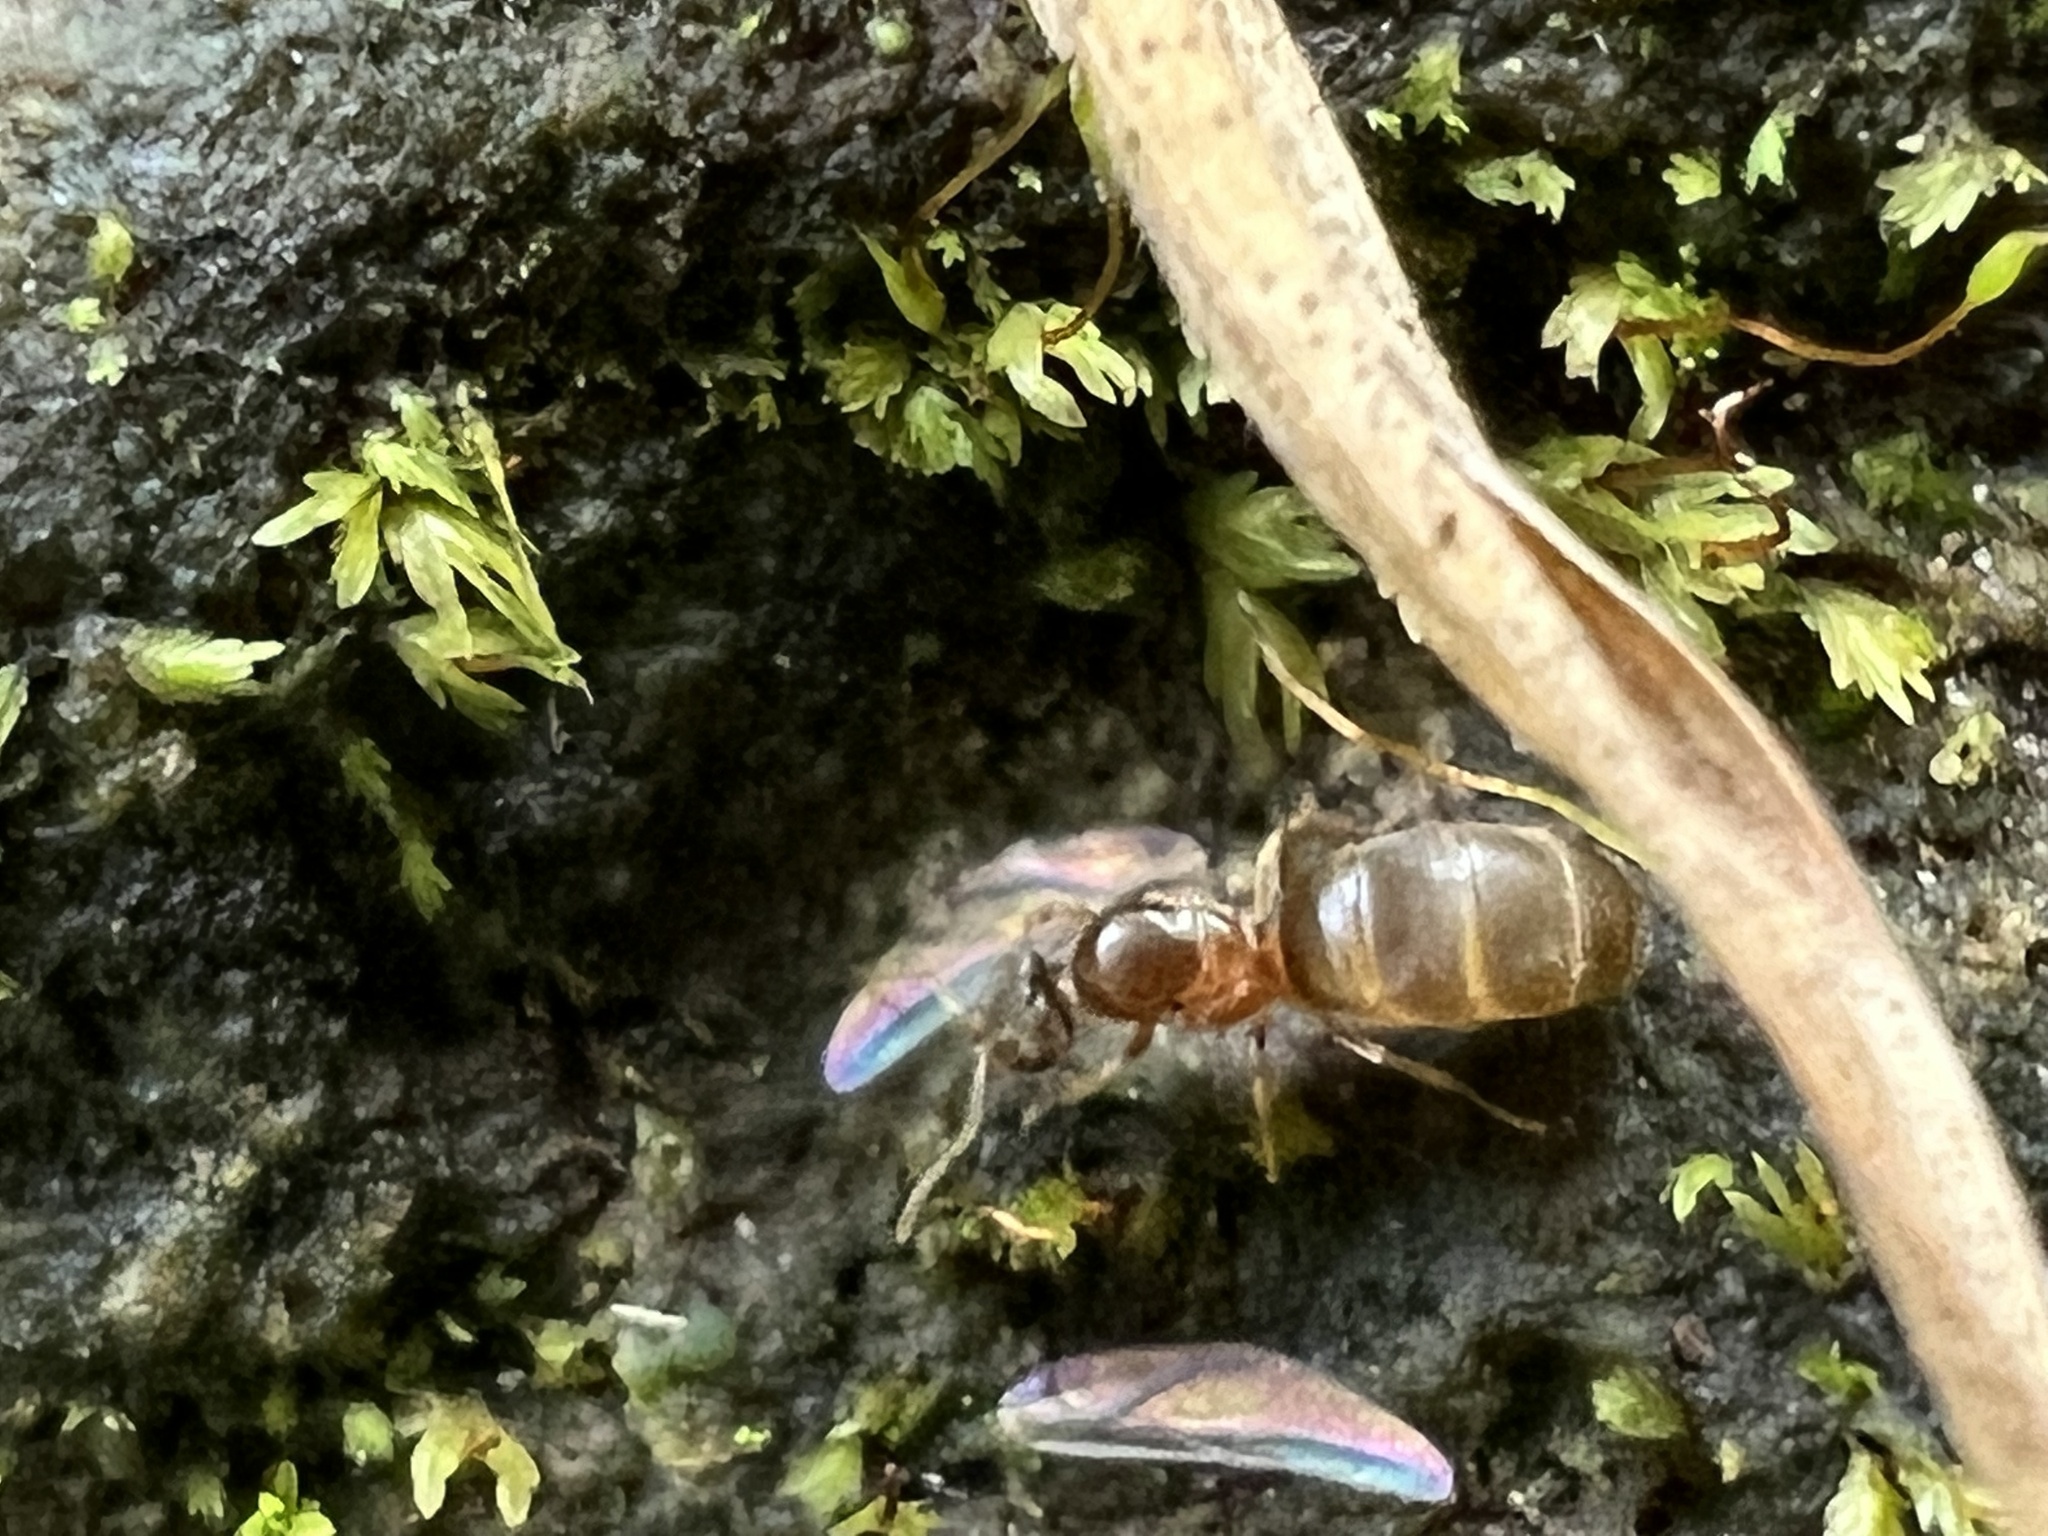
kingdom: Animalia
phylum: Arthropoda
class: Insecta
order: Hymenoptera
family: Formicidae
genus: Brachymyrmex
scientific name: Brachymyrmex depilis
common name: Hairless rover ant
